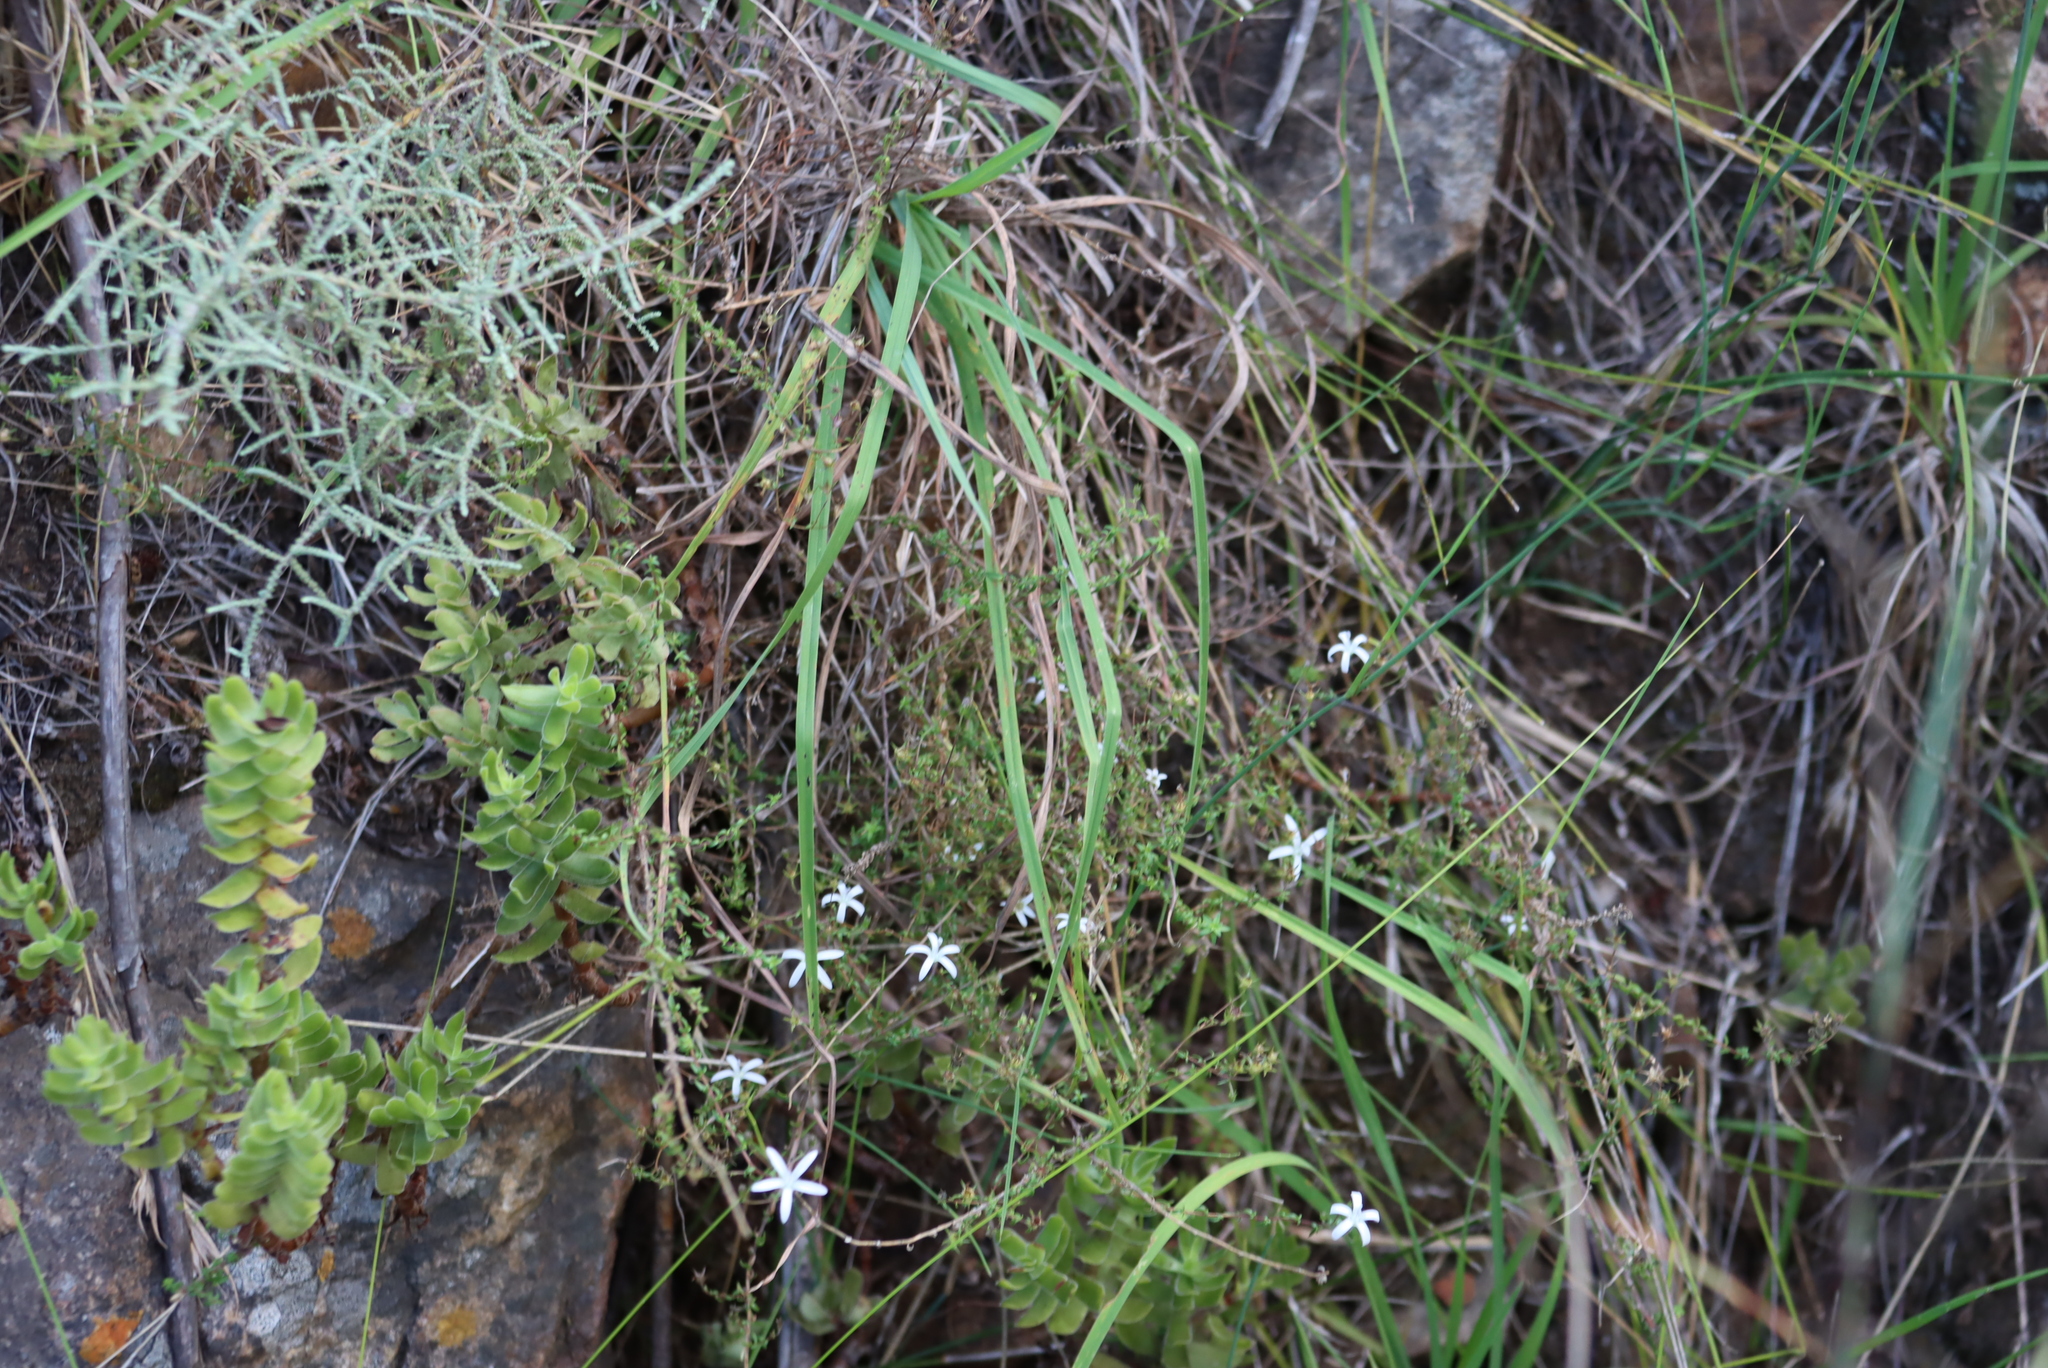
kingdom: Plantae
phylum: Tracheophyta
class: Magnoliopsida
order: Saxifragales
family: Crassulaceae
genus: Crassula
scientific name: Crassula undulata
